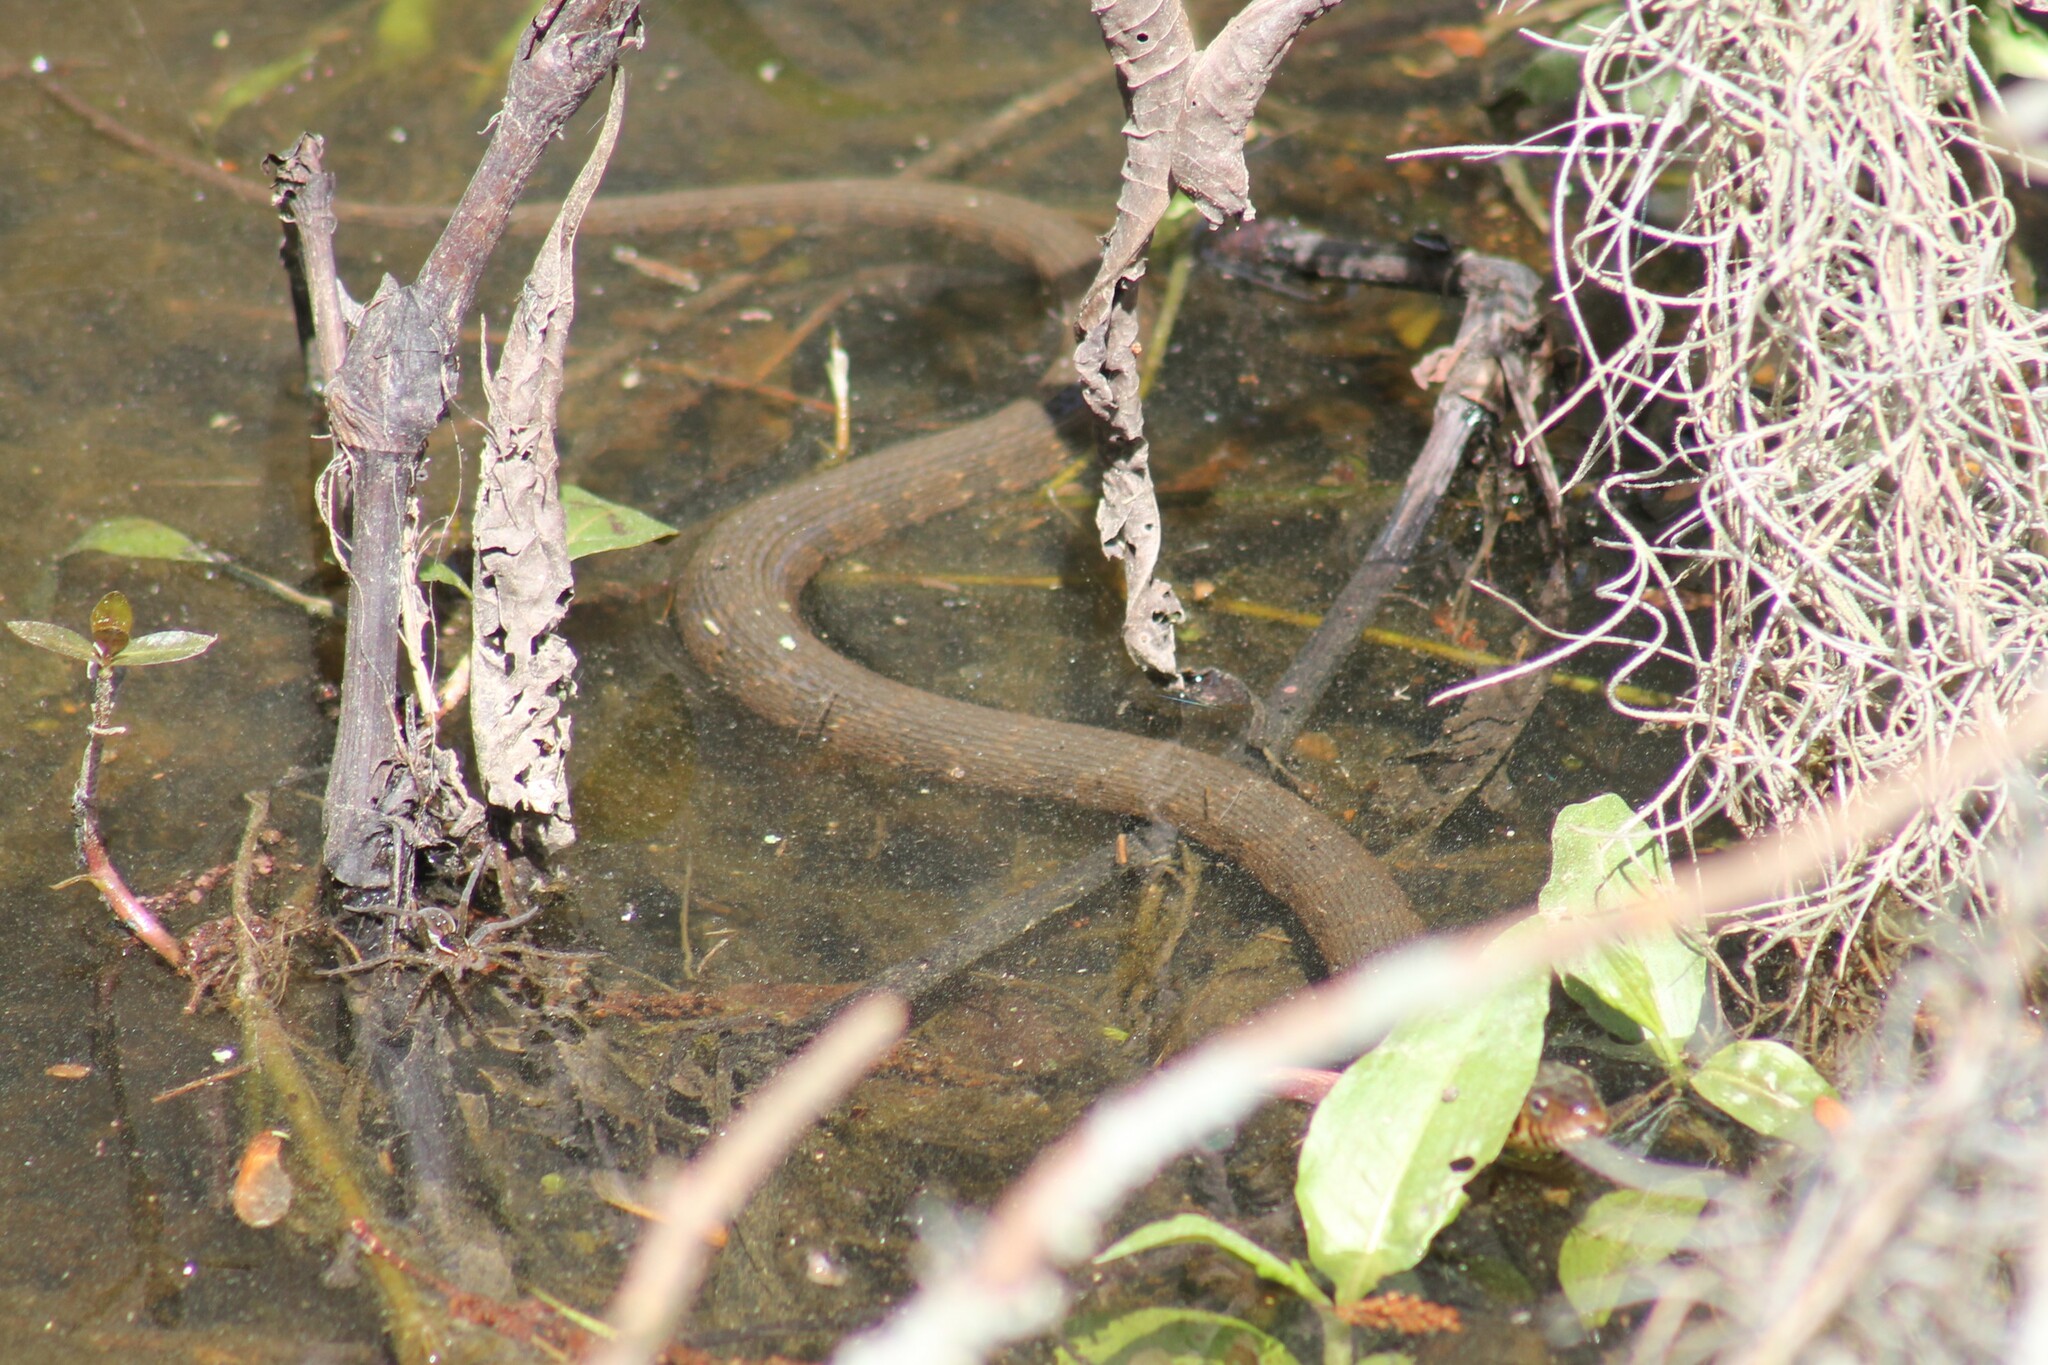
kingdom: Animalia
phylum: Chordata
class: Squamata
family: Colubridae
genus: Nerodia
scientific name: Nerodia fasciata
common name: Southern water snake
